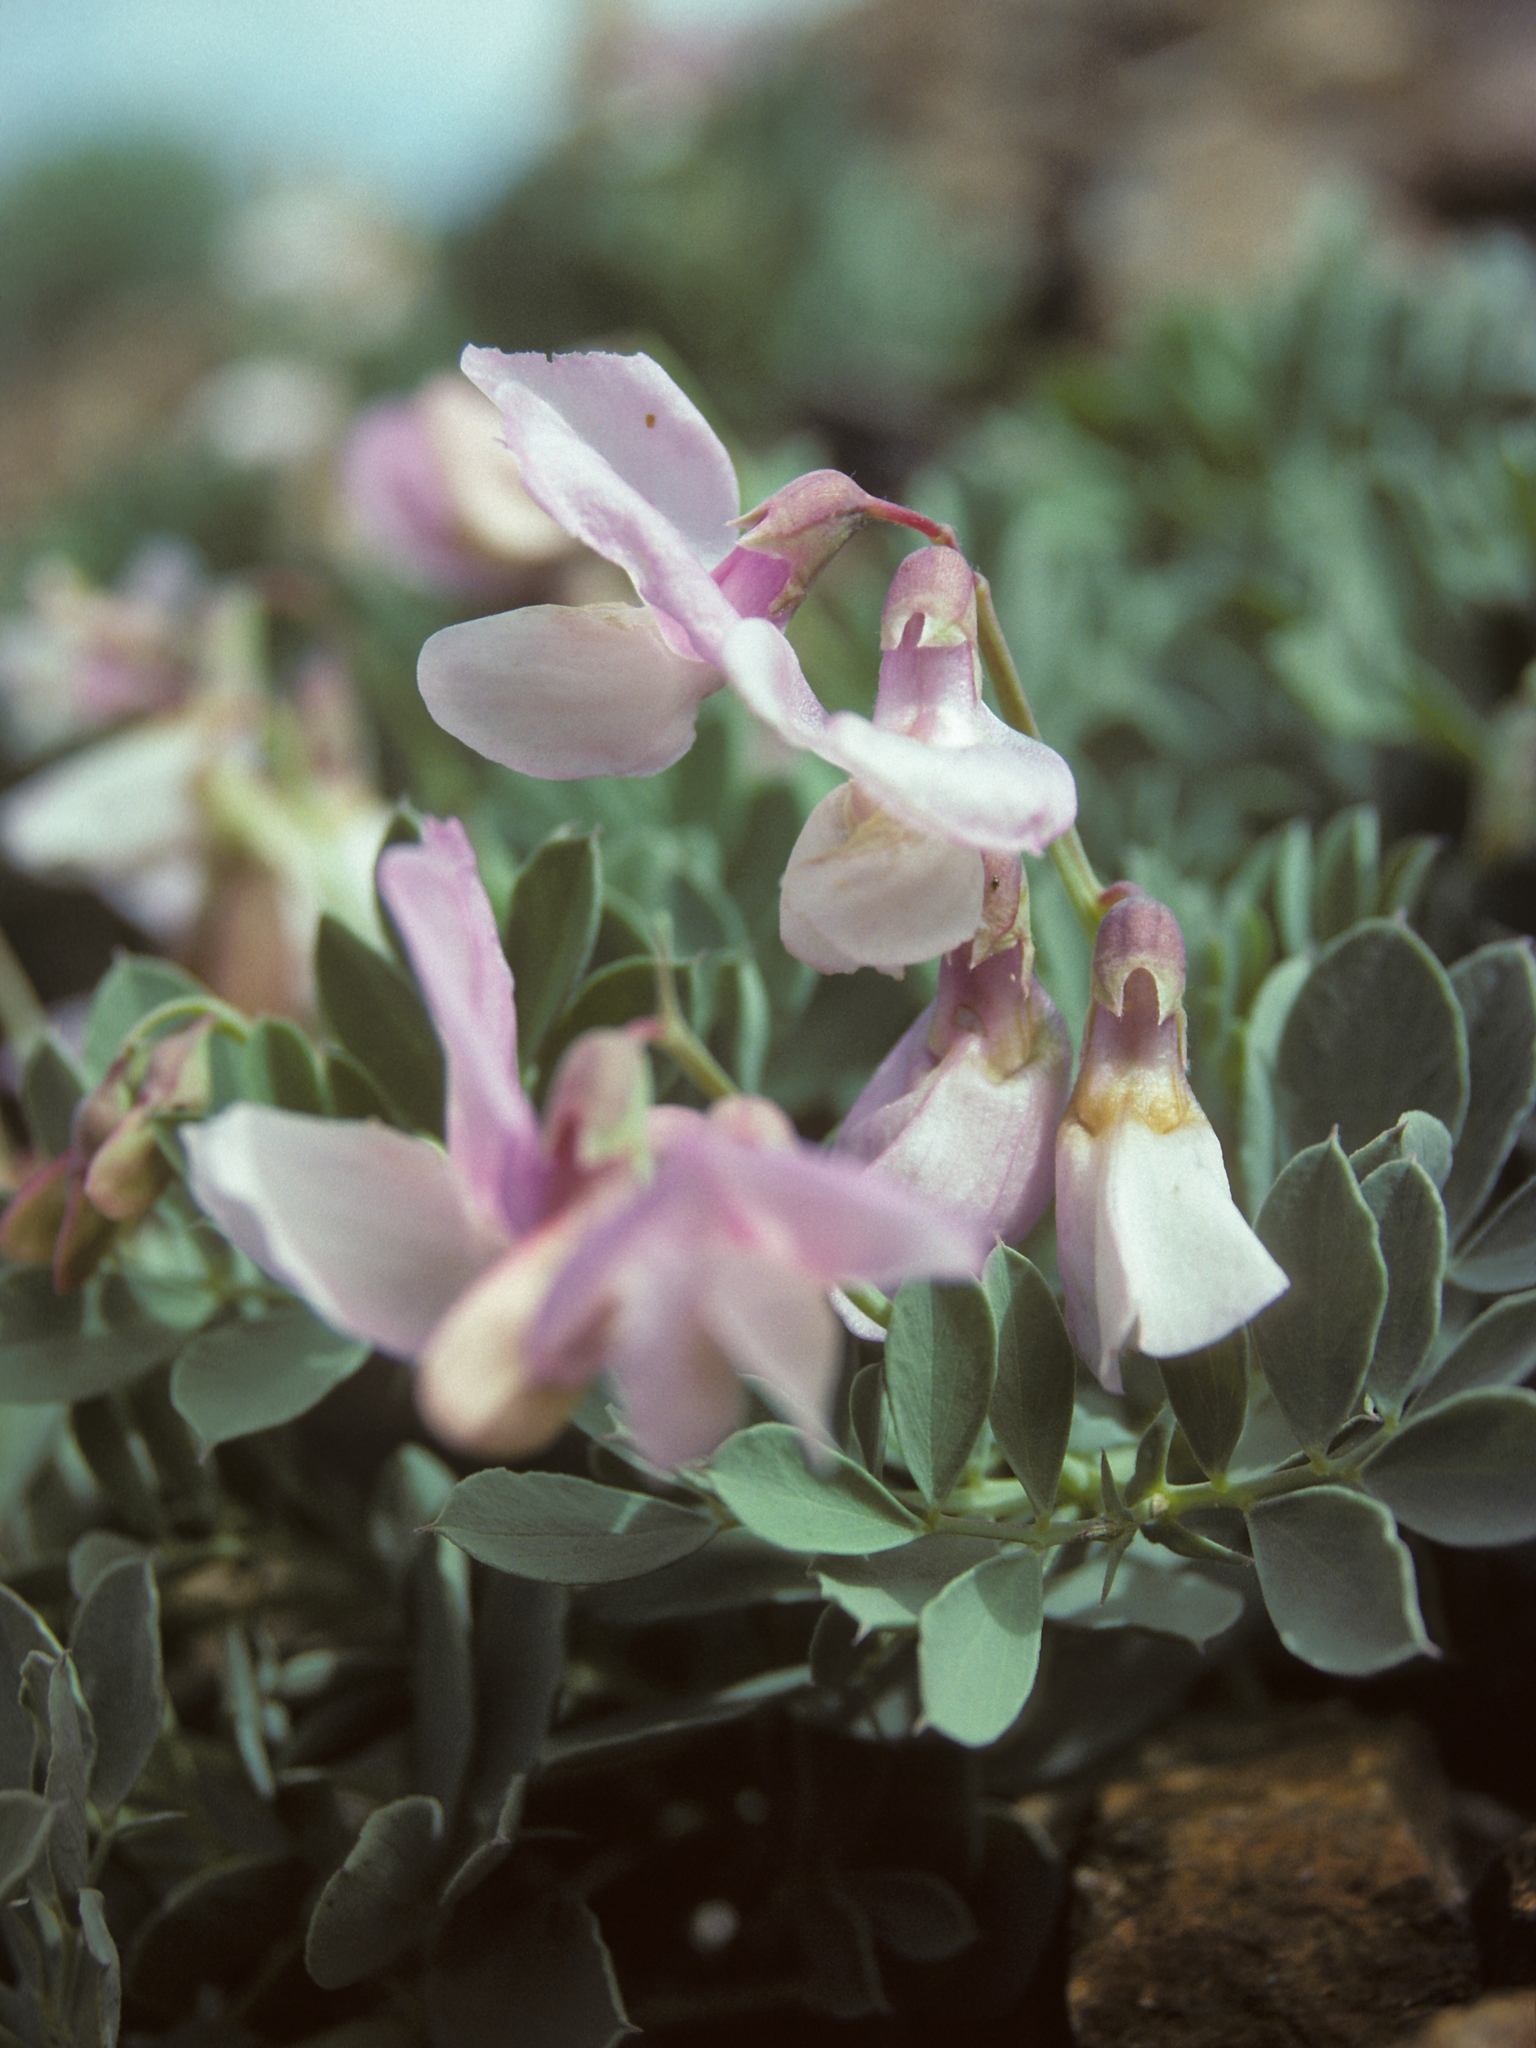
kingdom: Plantae
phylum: Tracheophyta
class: Magnoliopsida
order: Fabales
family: Fabaceae
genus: Lathyrus
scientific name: Lathyrus grimesii
